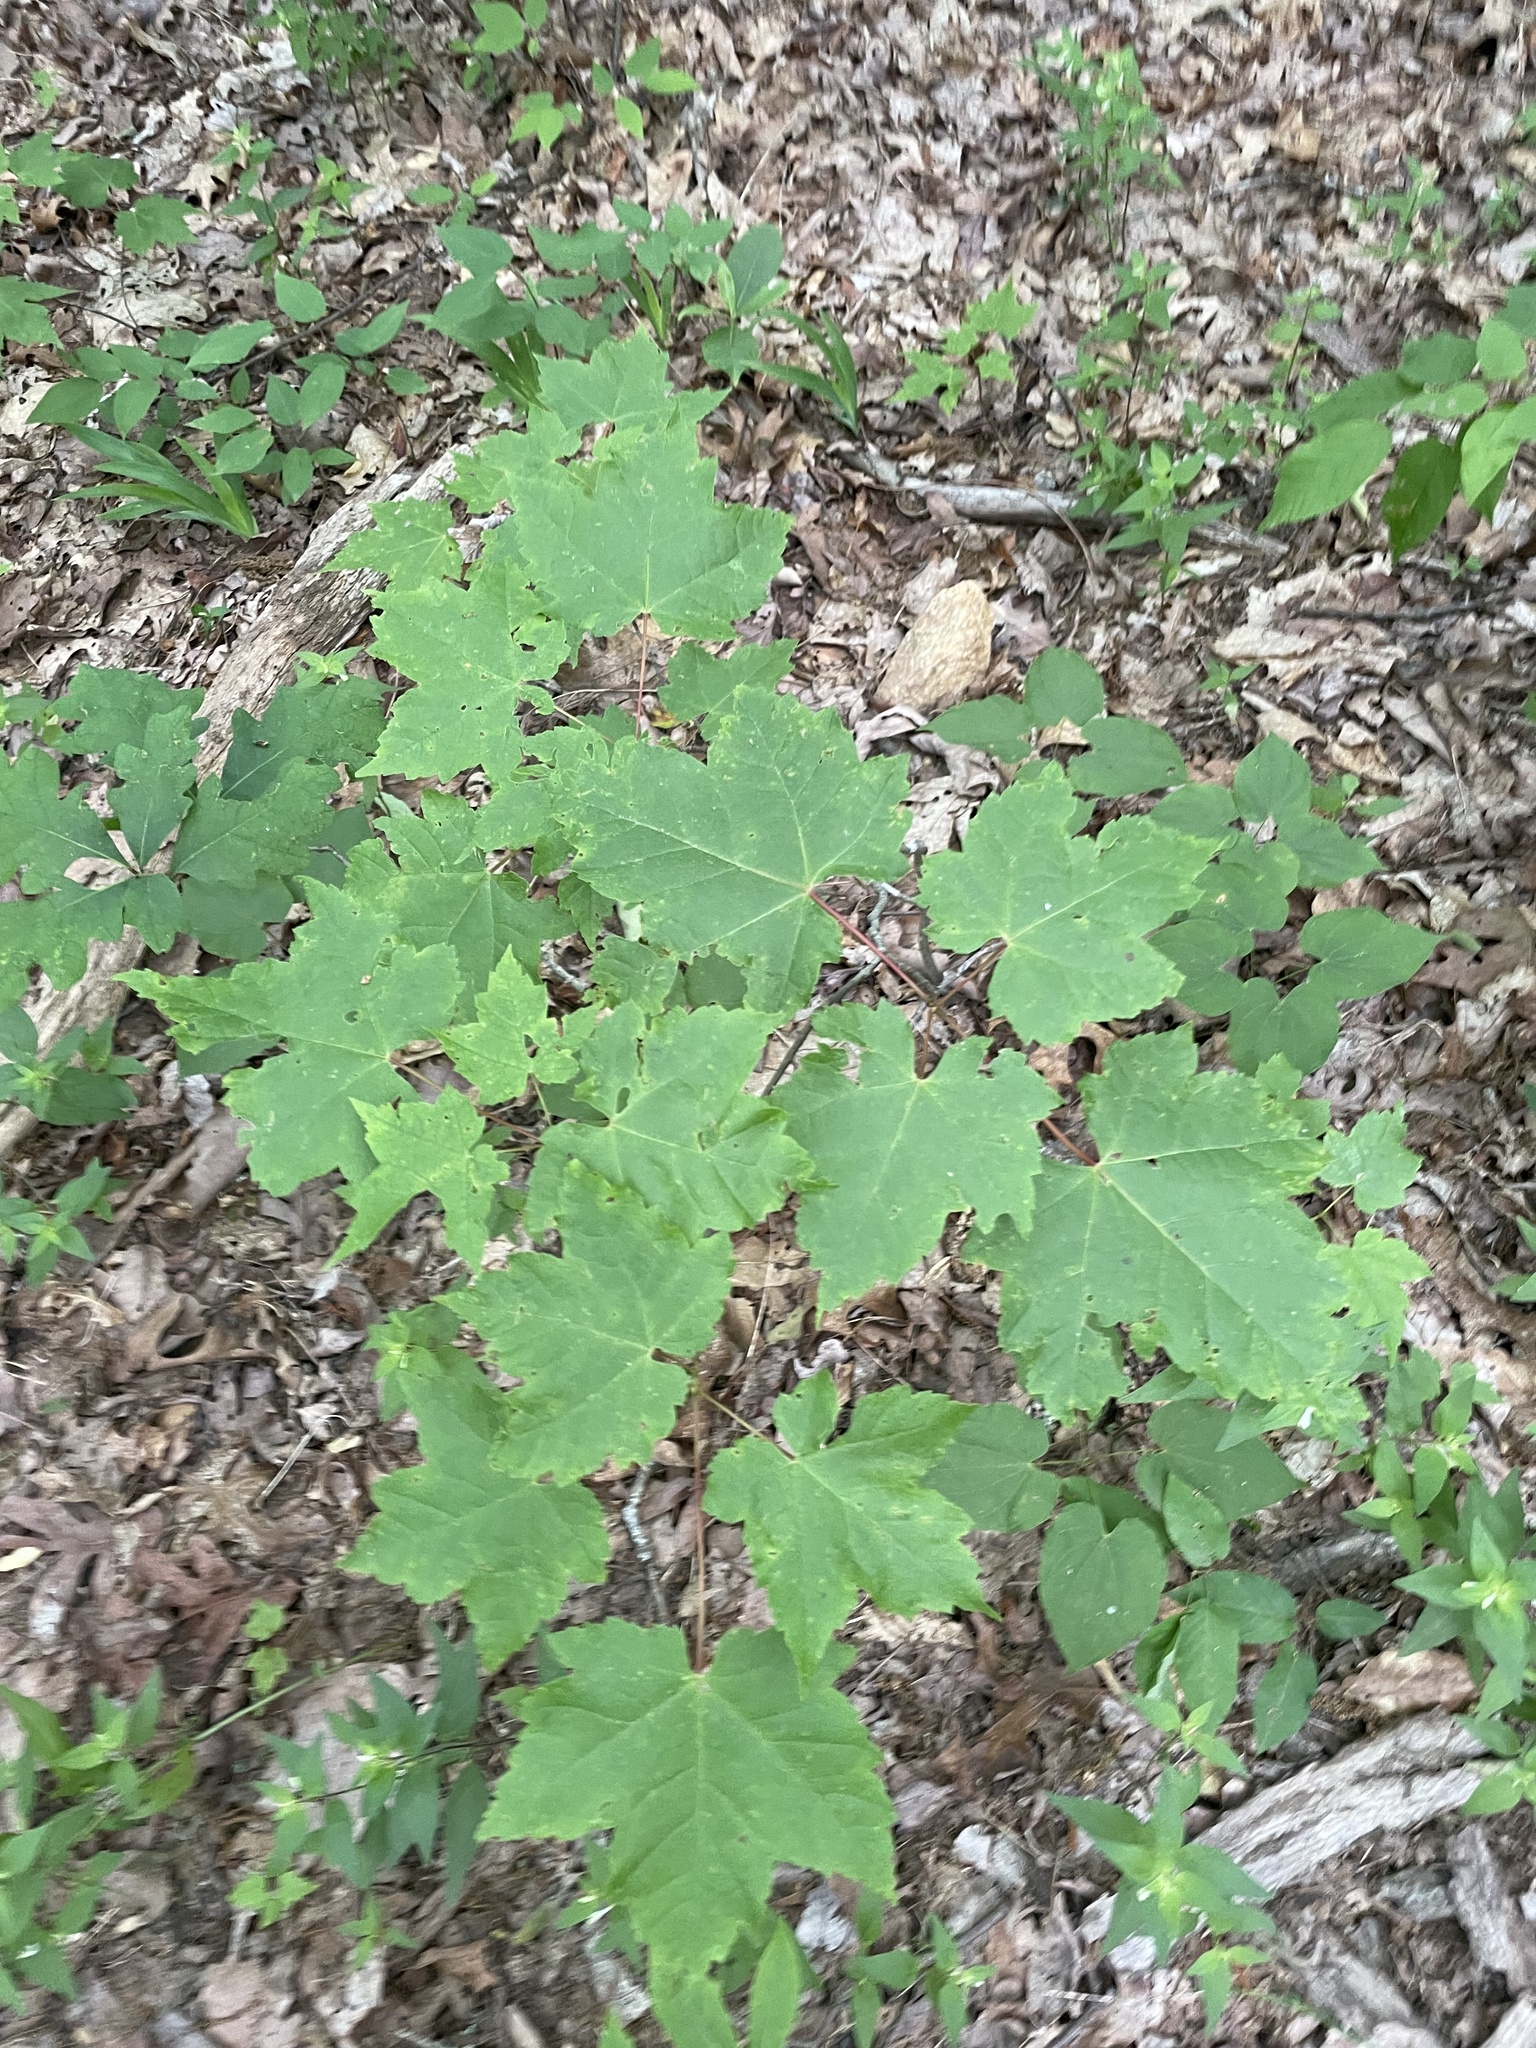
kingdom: Plantae
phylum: Tracheophyta
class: Magnoliopsida
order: Sapindales
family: Sapindaceae
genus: Acer
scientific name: Acer rubrum
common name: Red maple
